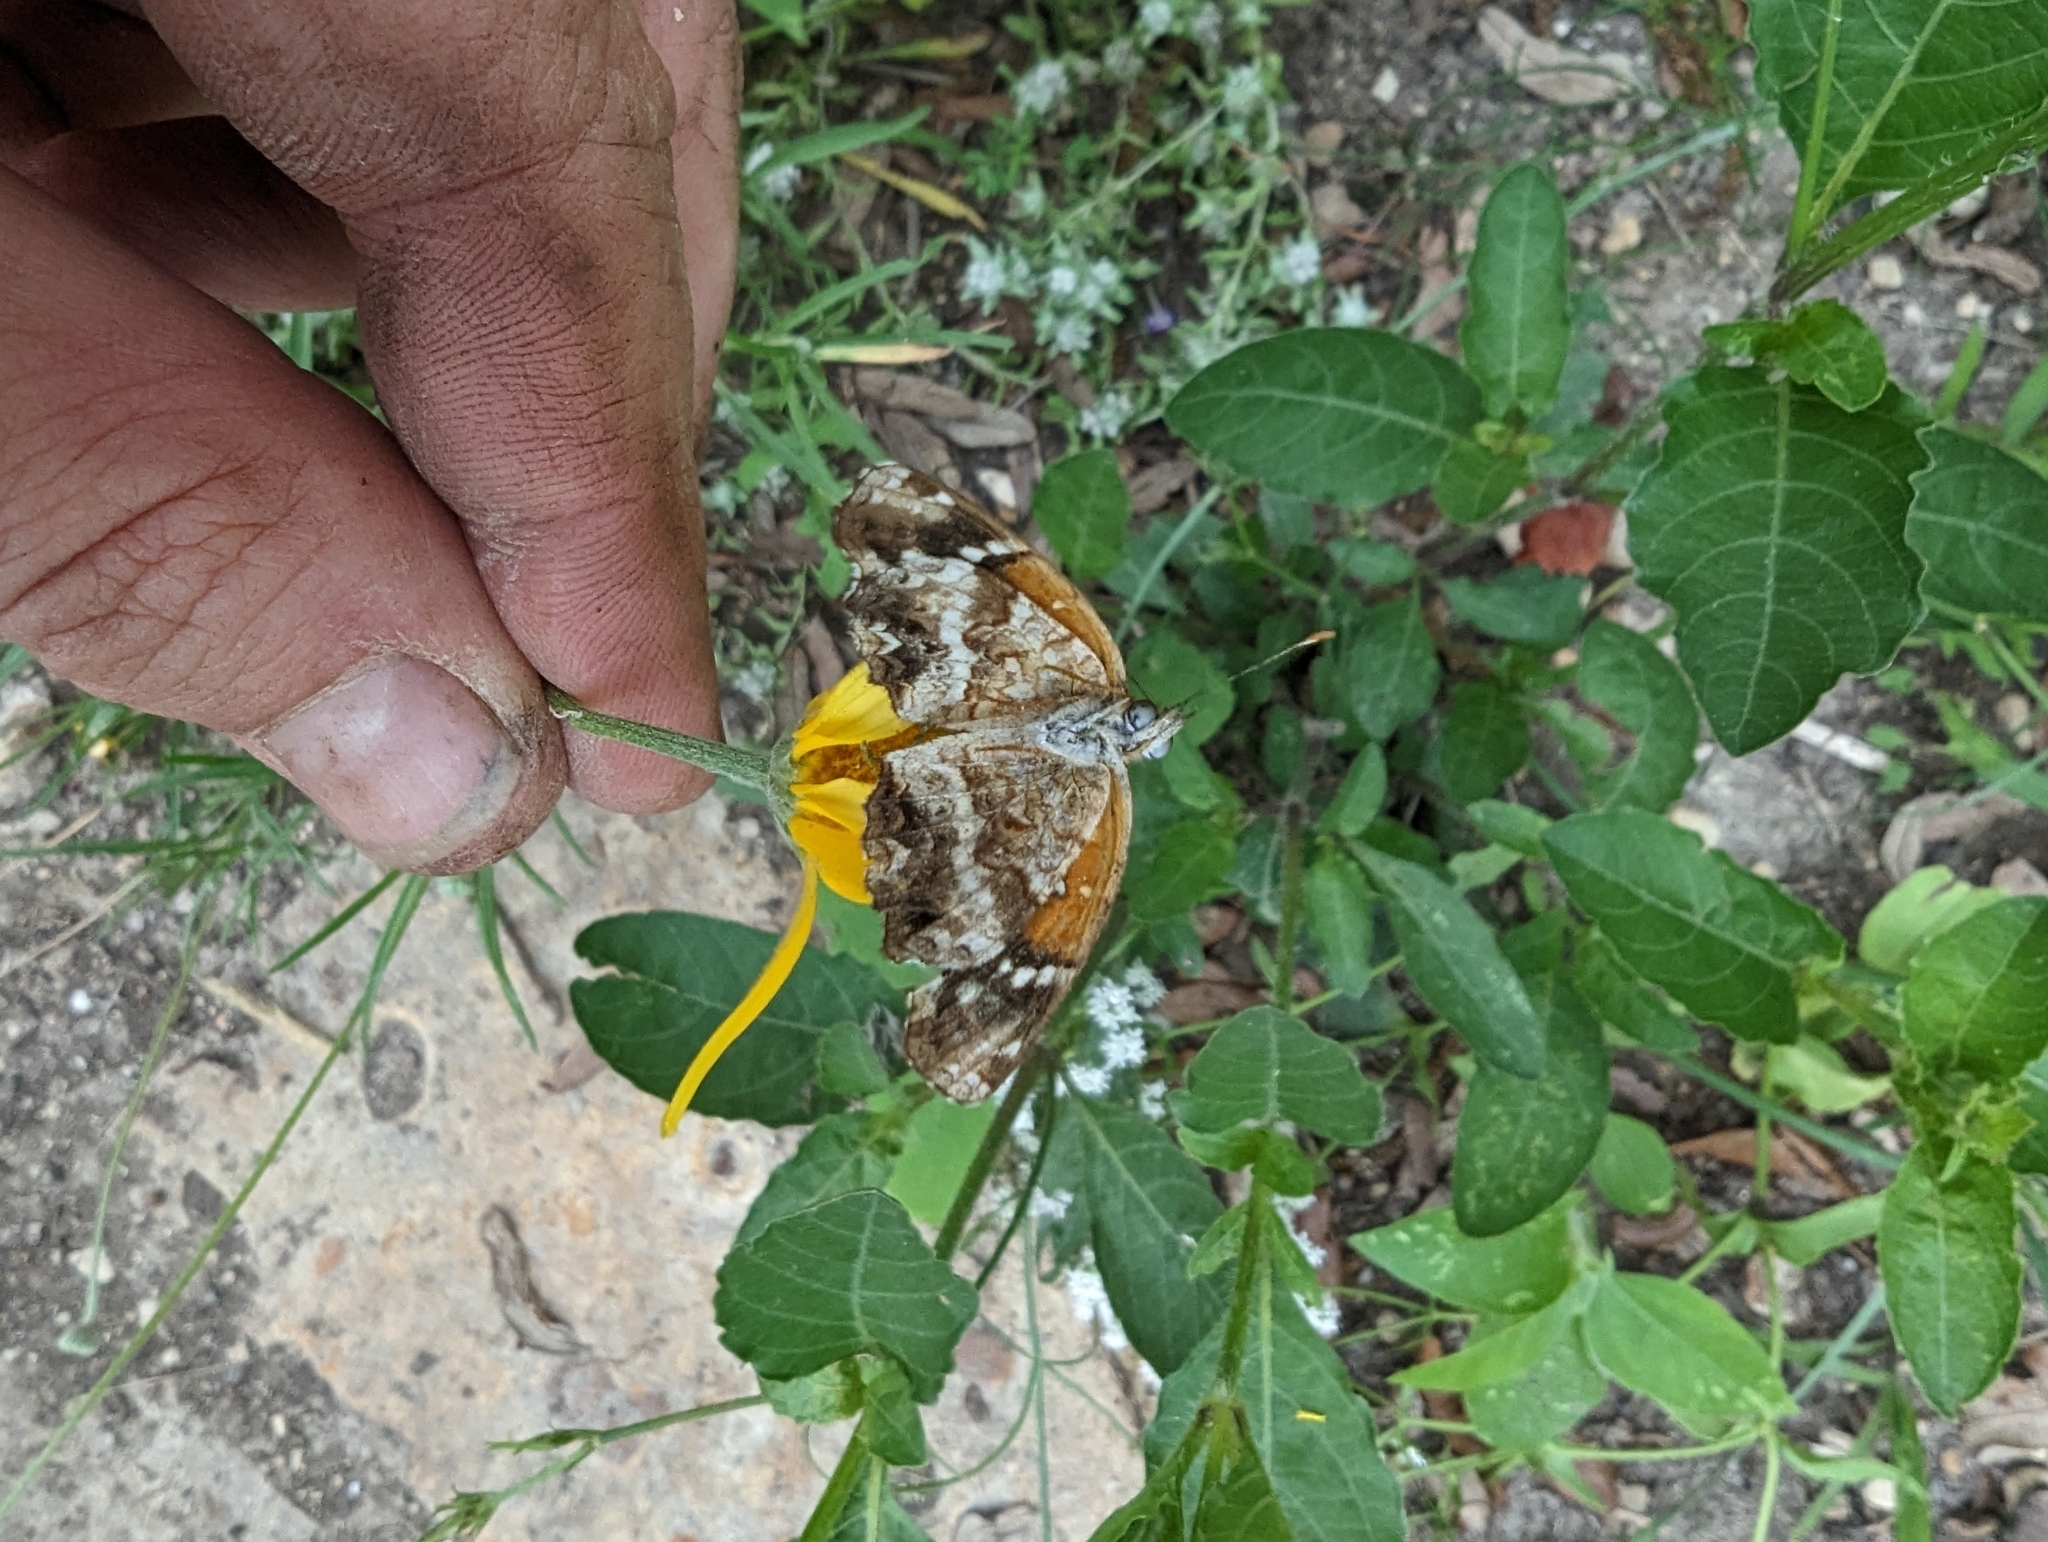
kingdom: Animalia
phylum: Arthropoda
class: Insecta
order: Lepidoptera
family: Nymphalidae
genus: Anthanassa
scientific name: Anthanassa texana
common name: Texan crescent
